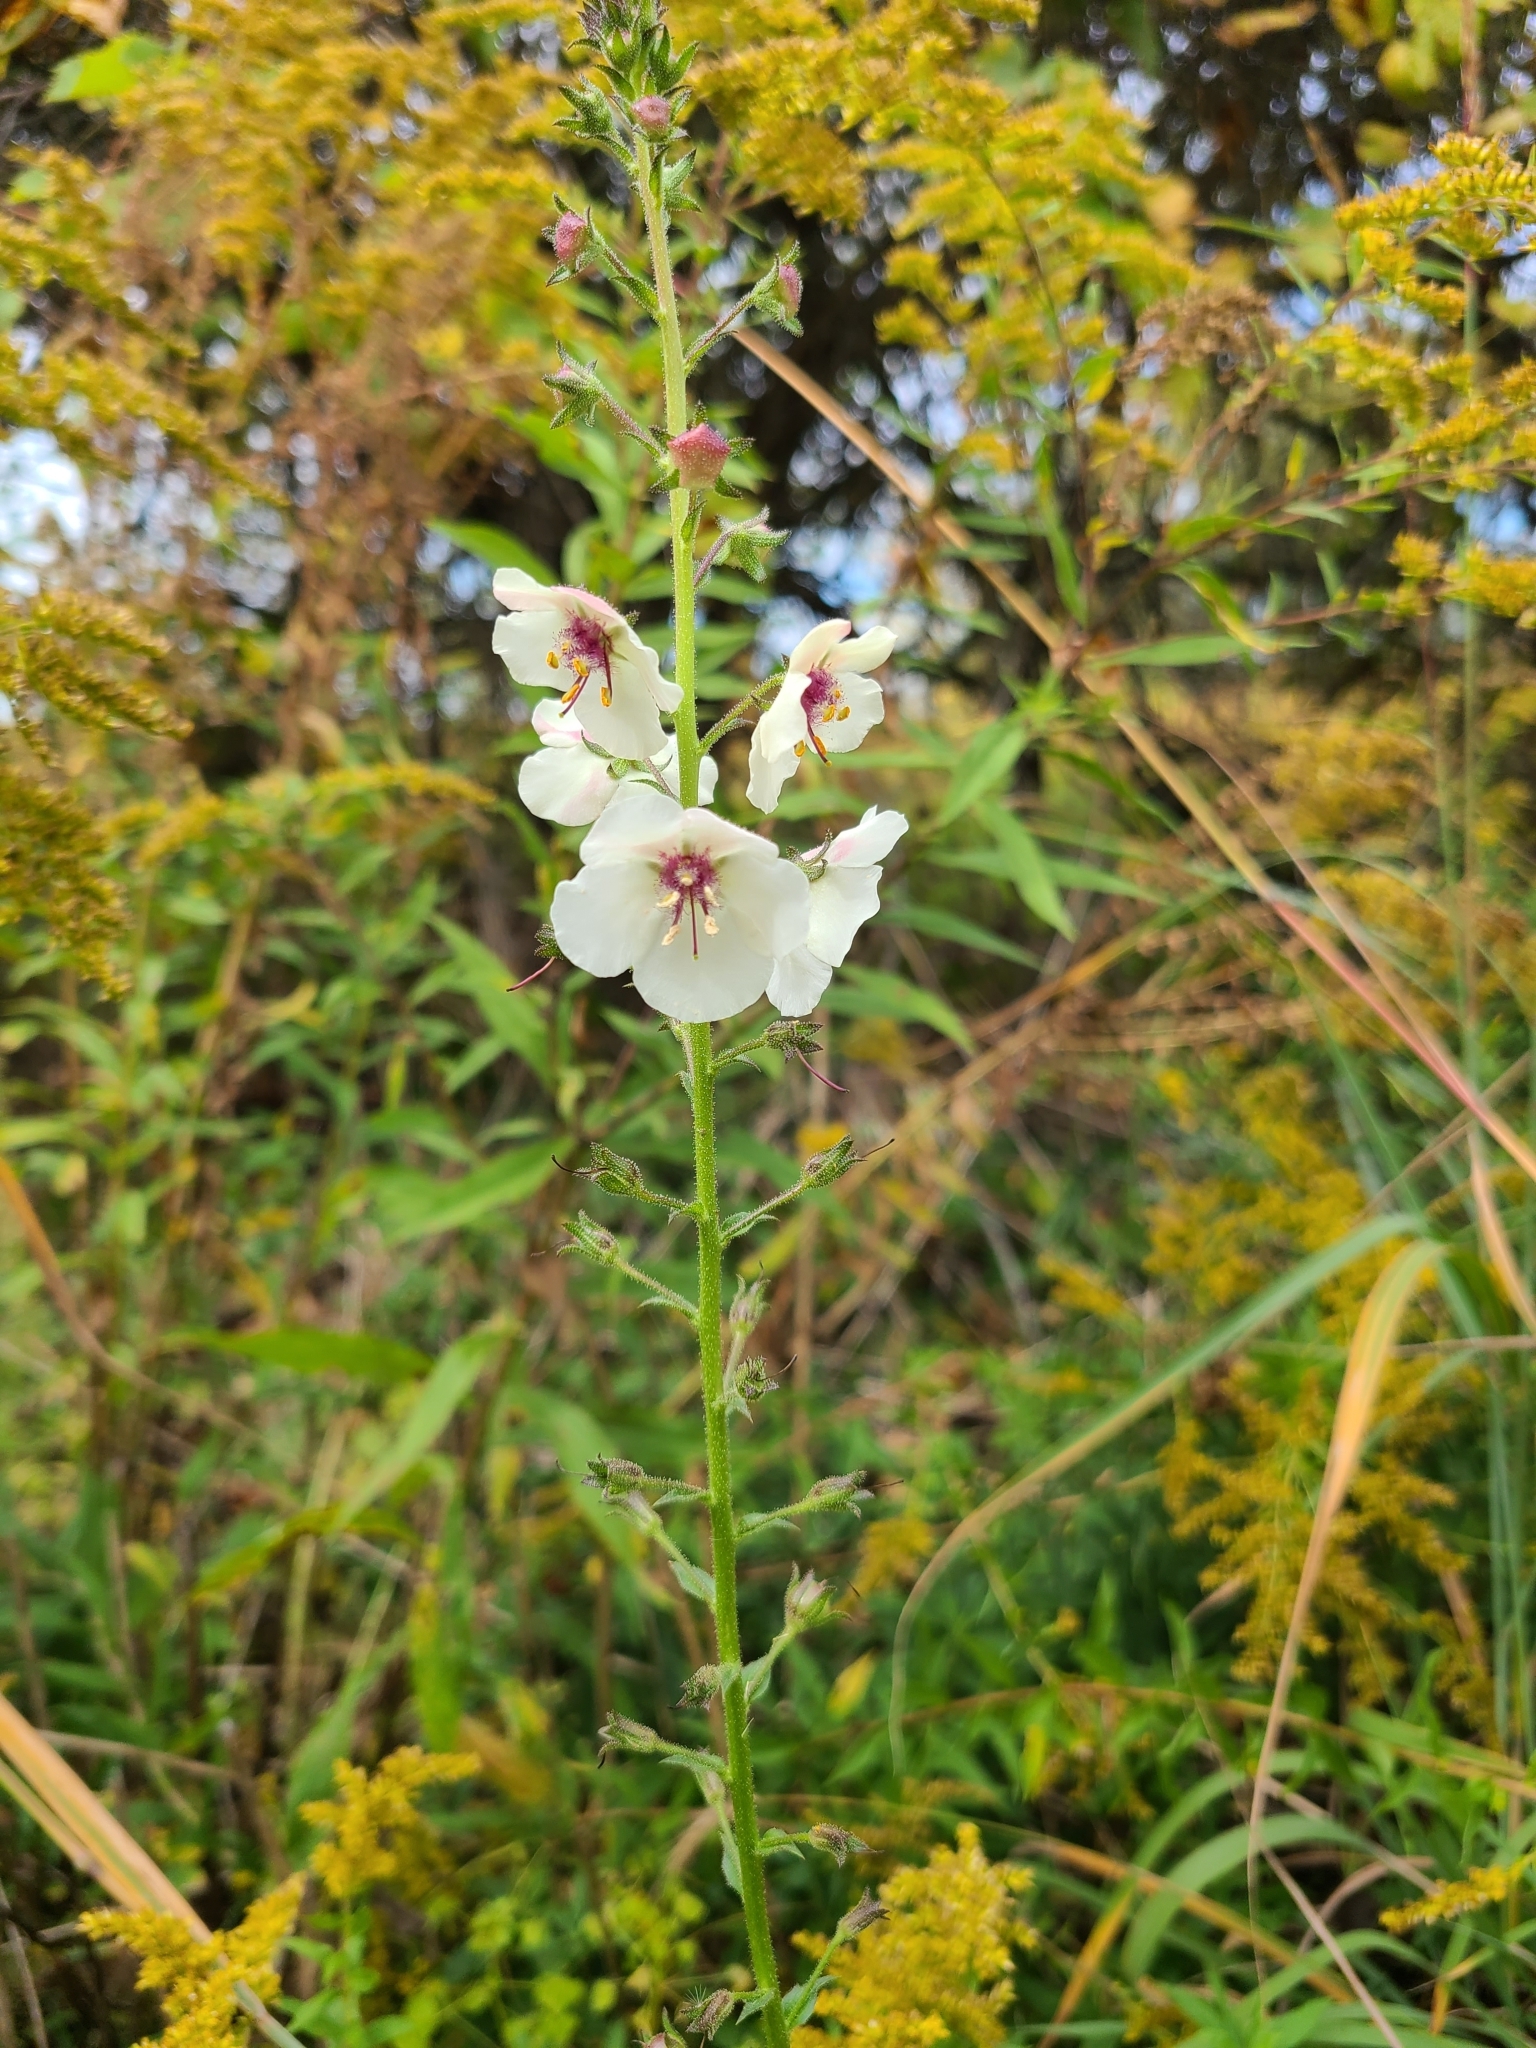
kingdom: Plantae
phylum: Tracheophyta
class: Magnoliopsida
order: Lamiales
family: Scrophulariaceae
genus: Verbascum
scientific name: Verbascum blattaria
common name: Moth mullein
